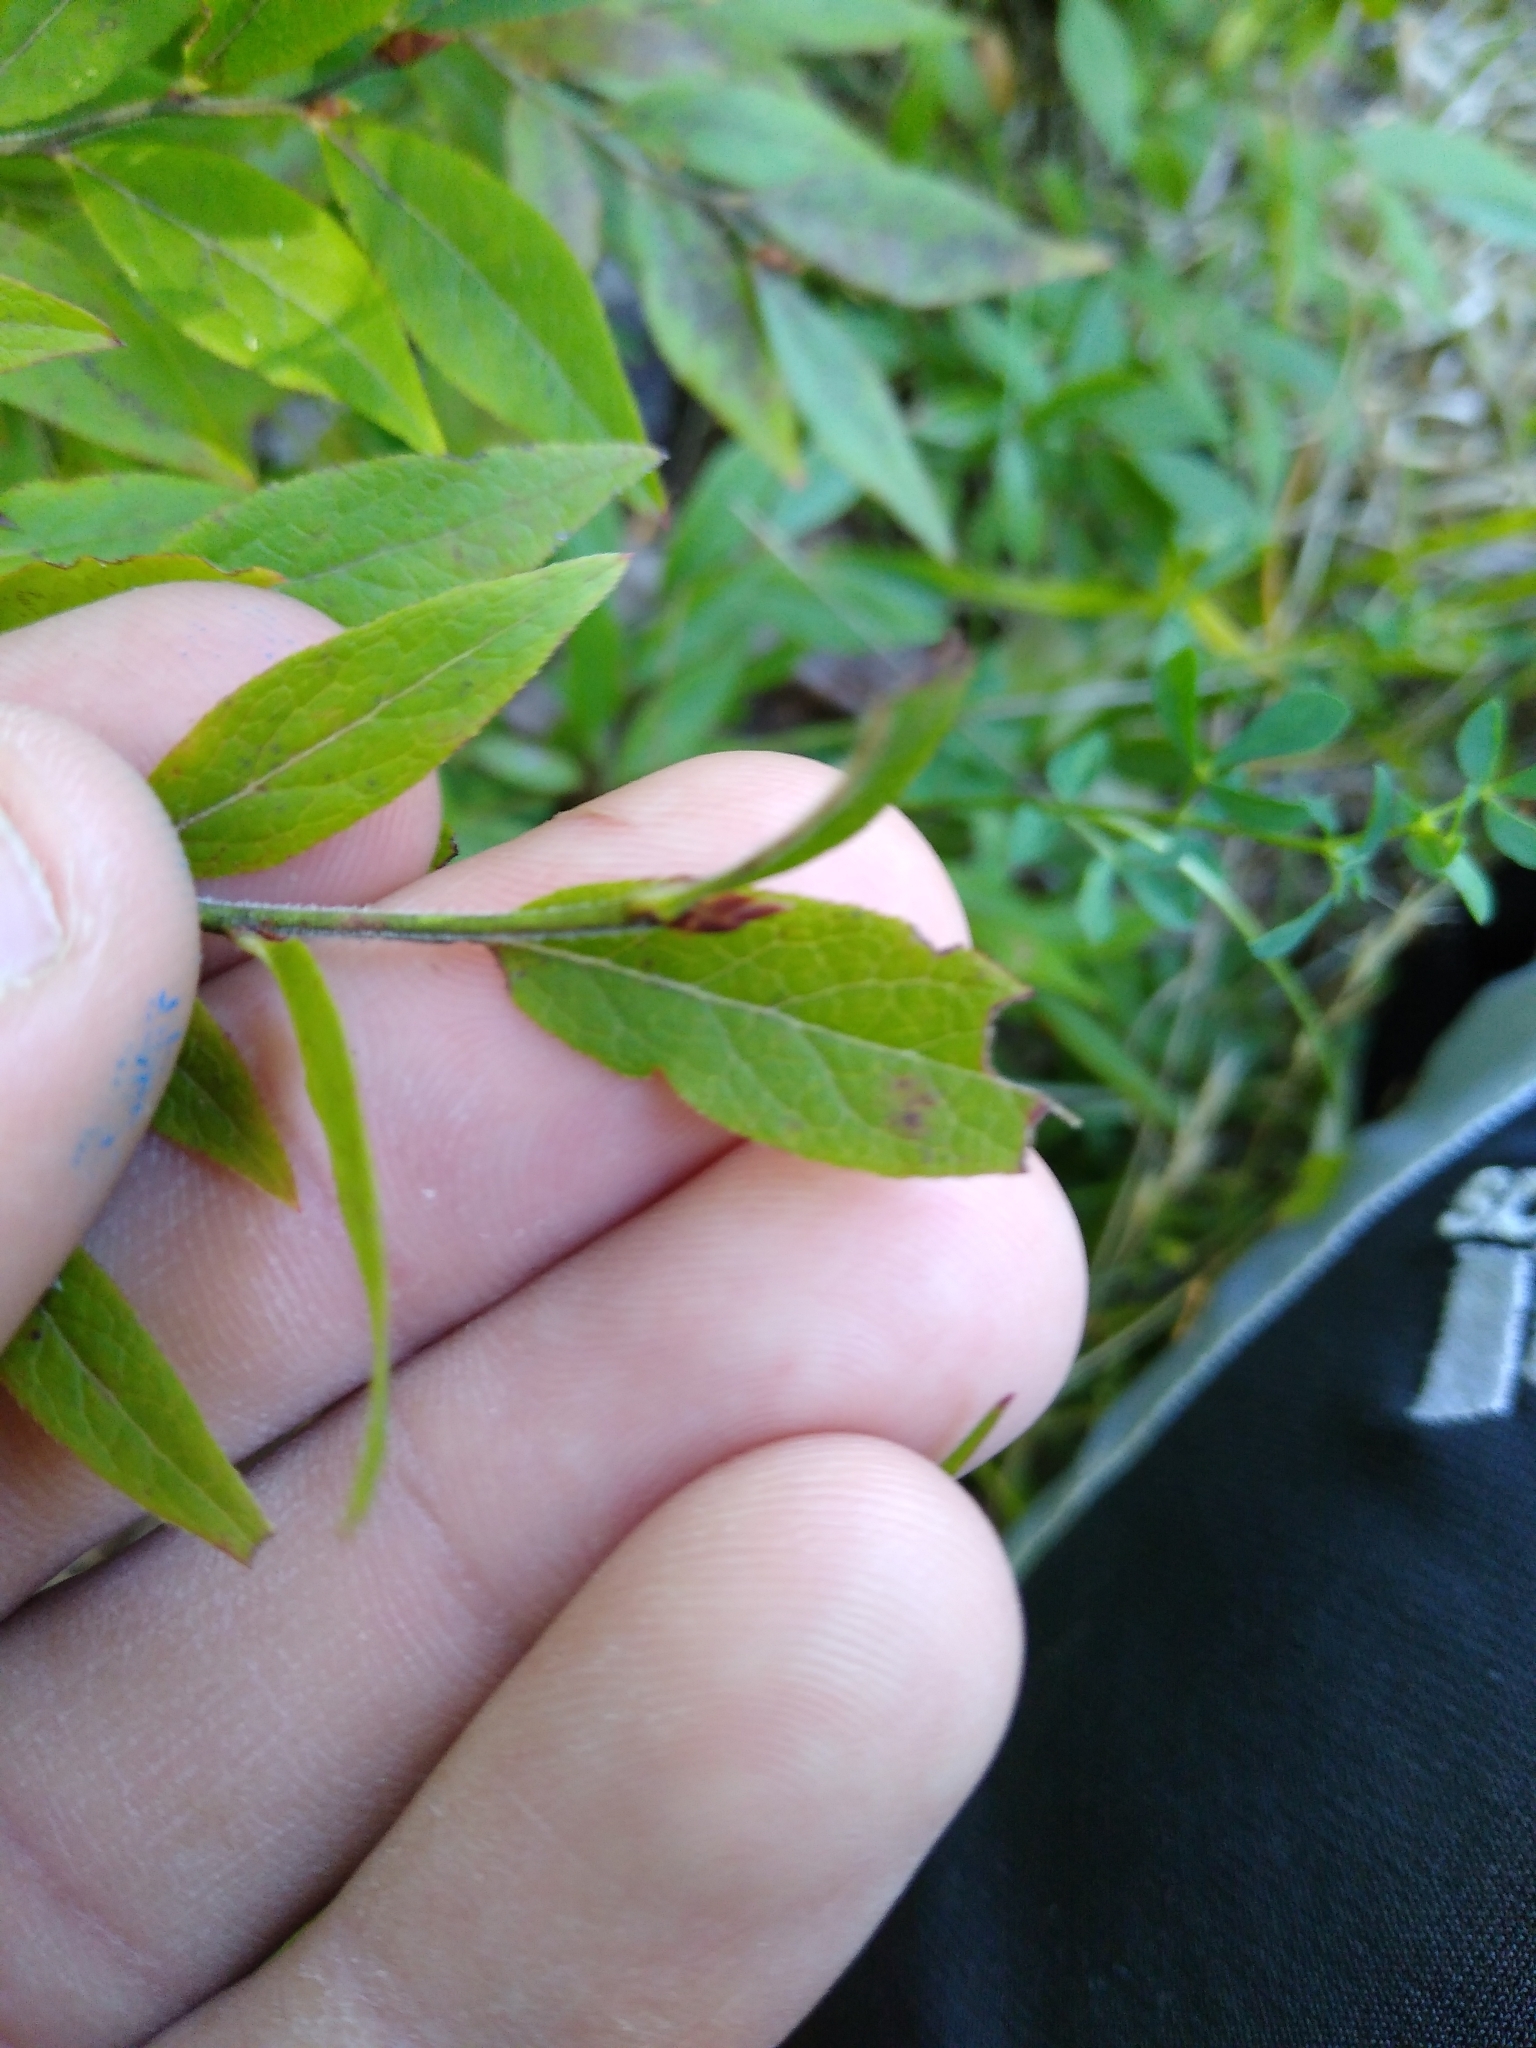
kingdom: Plantae
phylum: Tracheophyta
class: Magnoliopsida
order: Ericales
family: Ericaceae
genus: Vaccinium
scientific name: Vaccinium angustifolium
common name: Early lowbush blueberry
